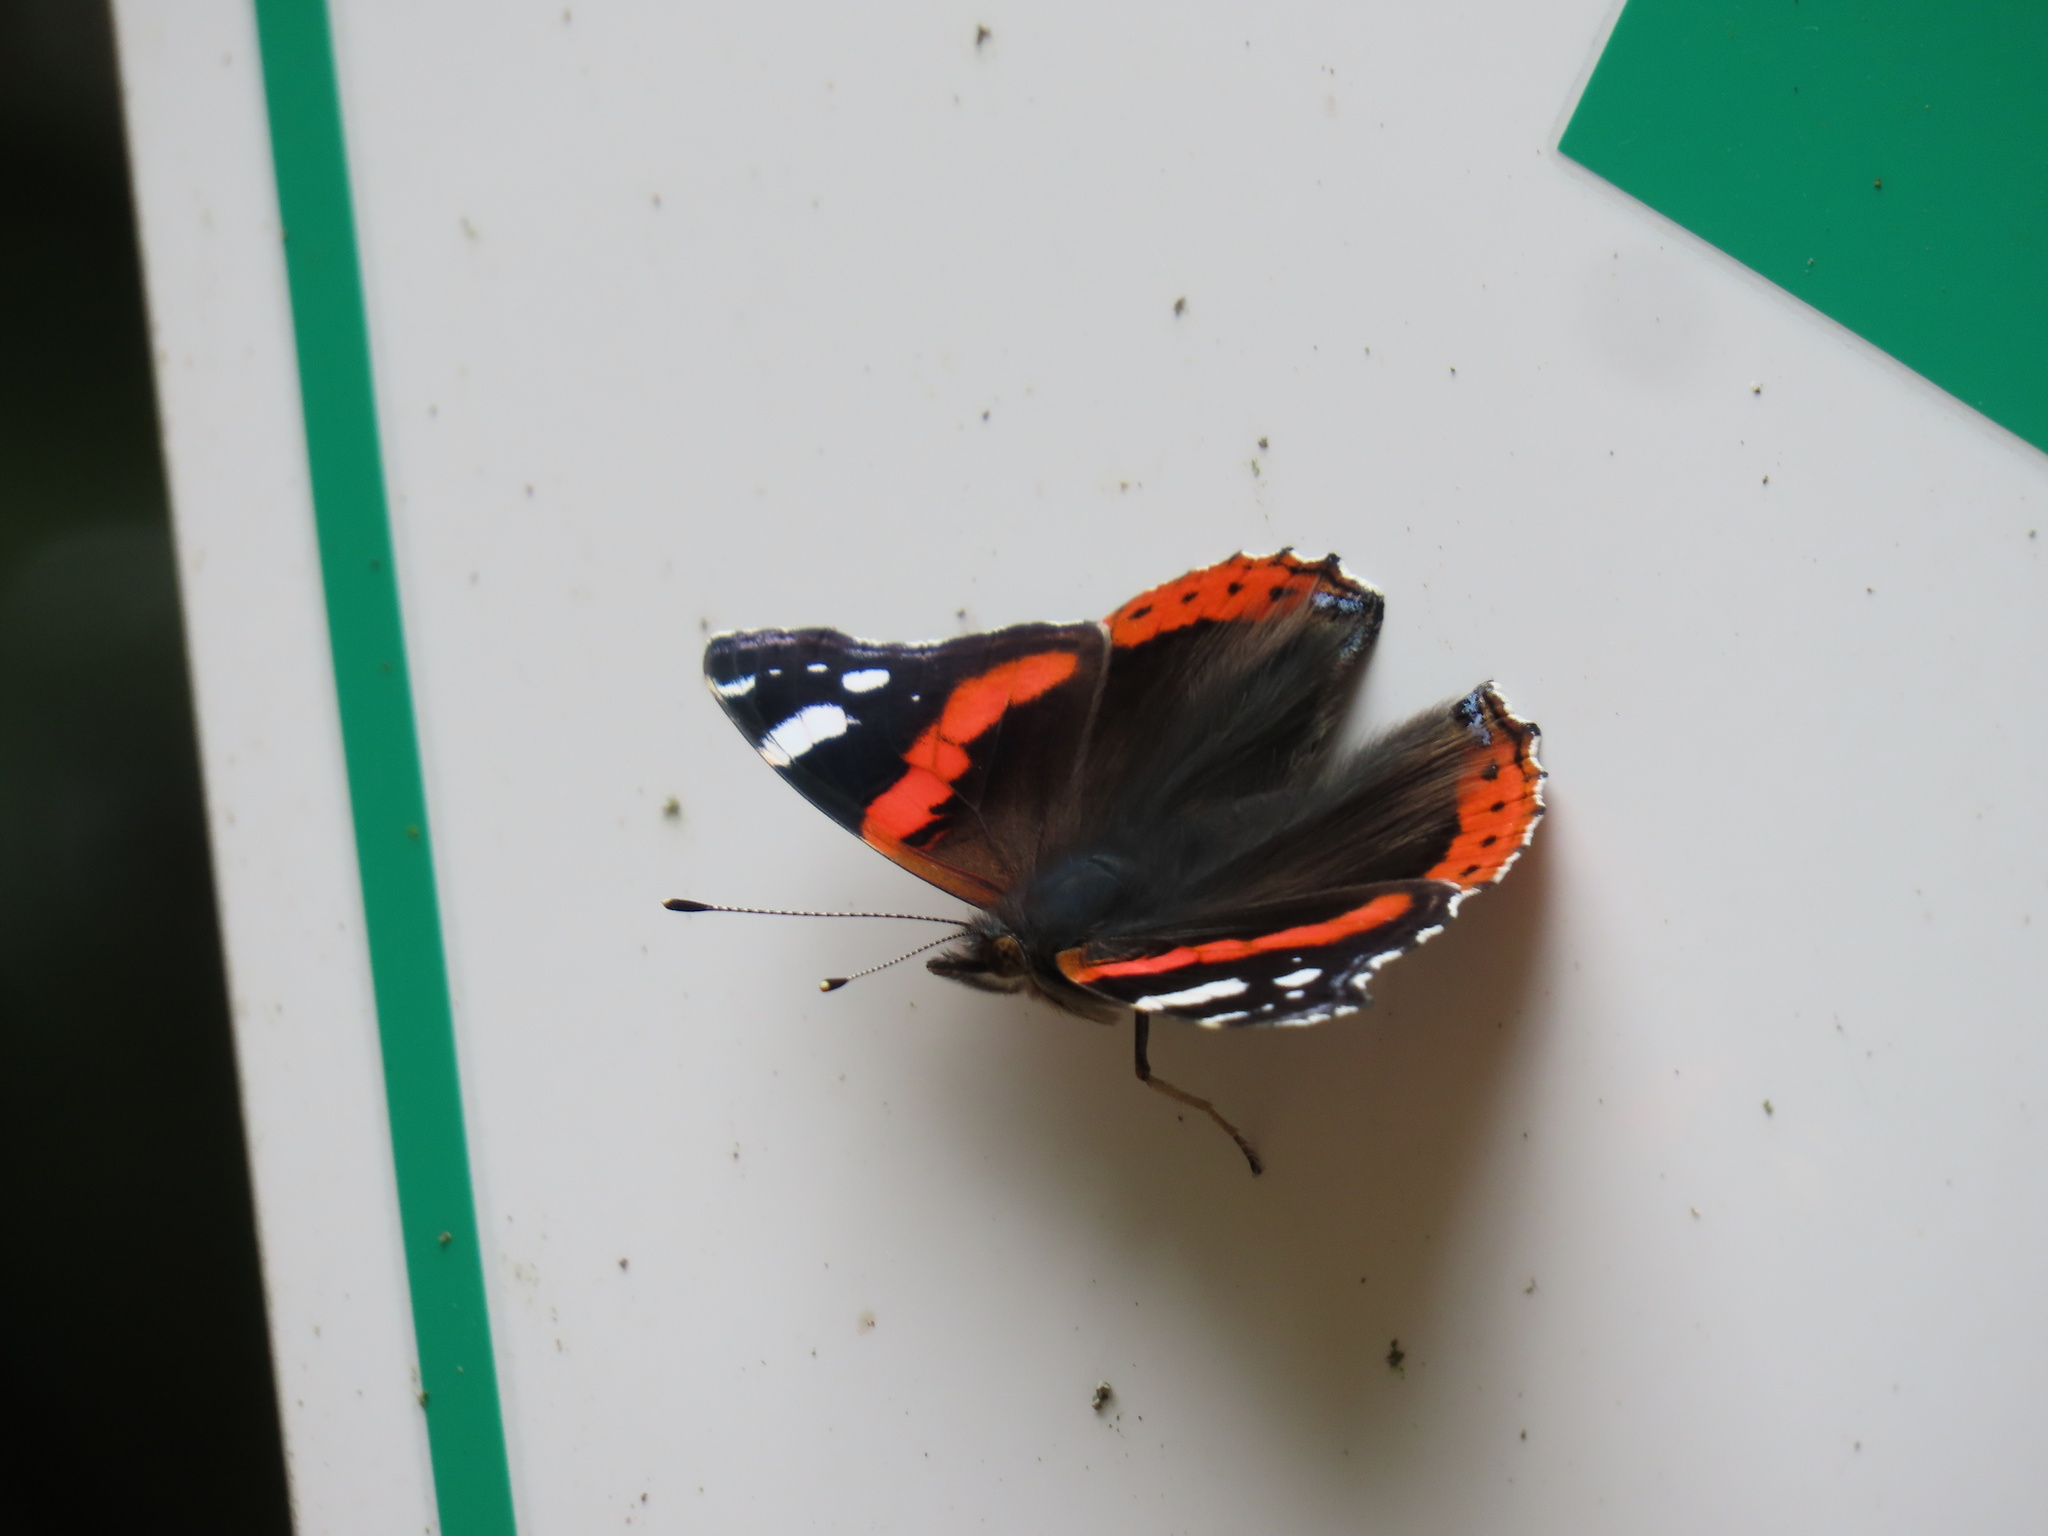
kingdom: Animalia
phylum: Arthropoda
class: Insecta
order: Lepidoptera
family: Nymphalidae
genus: Vanessa
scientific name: Vanessa atalanta
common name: Red admiral
